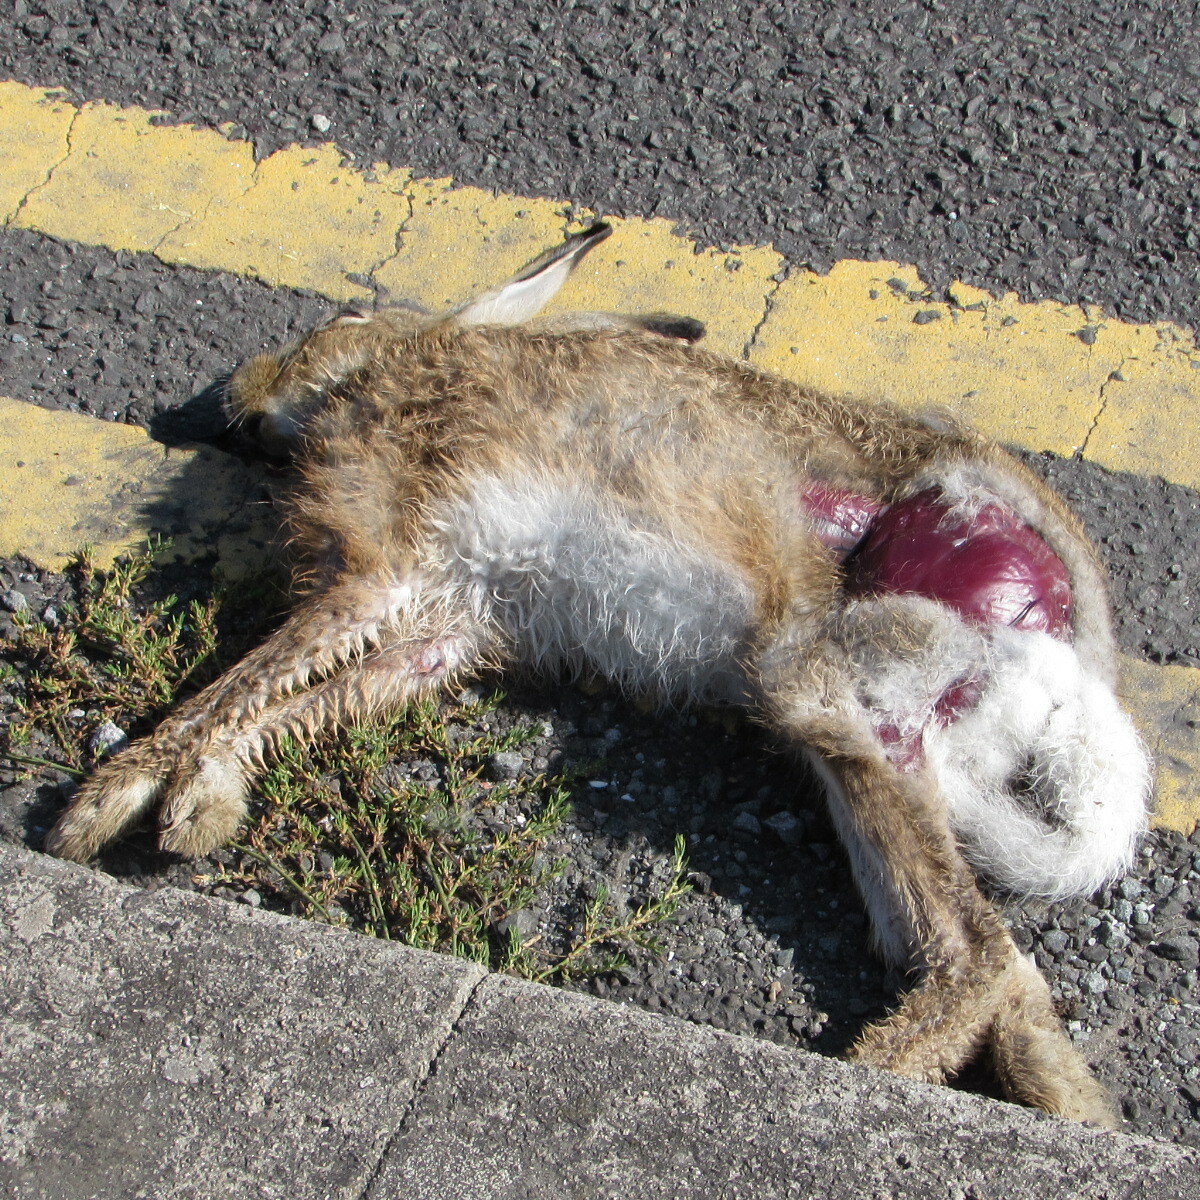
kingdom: Animalia
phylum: Chordata
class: Mammalia
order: Lagomorpha
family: Leporidae
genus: Lepus
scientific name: Lepus europaeus
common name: European hare
